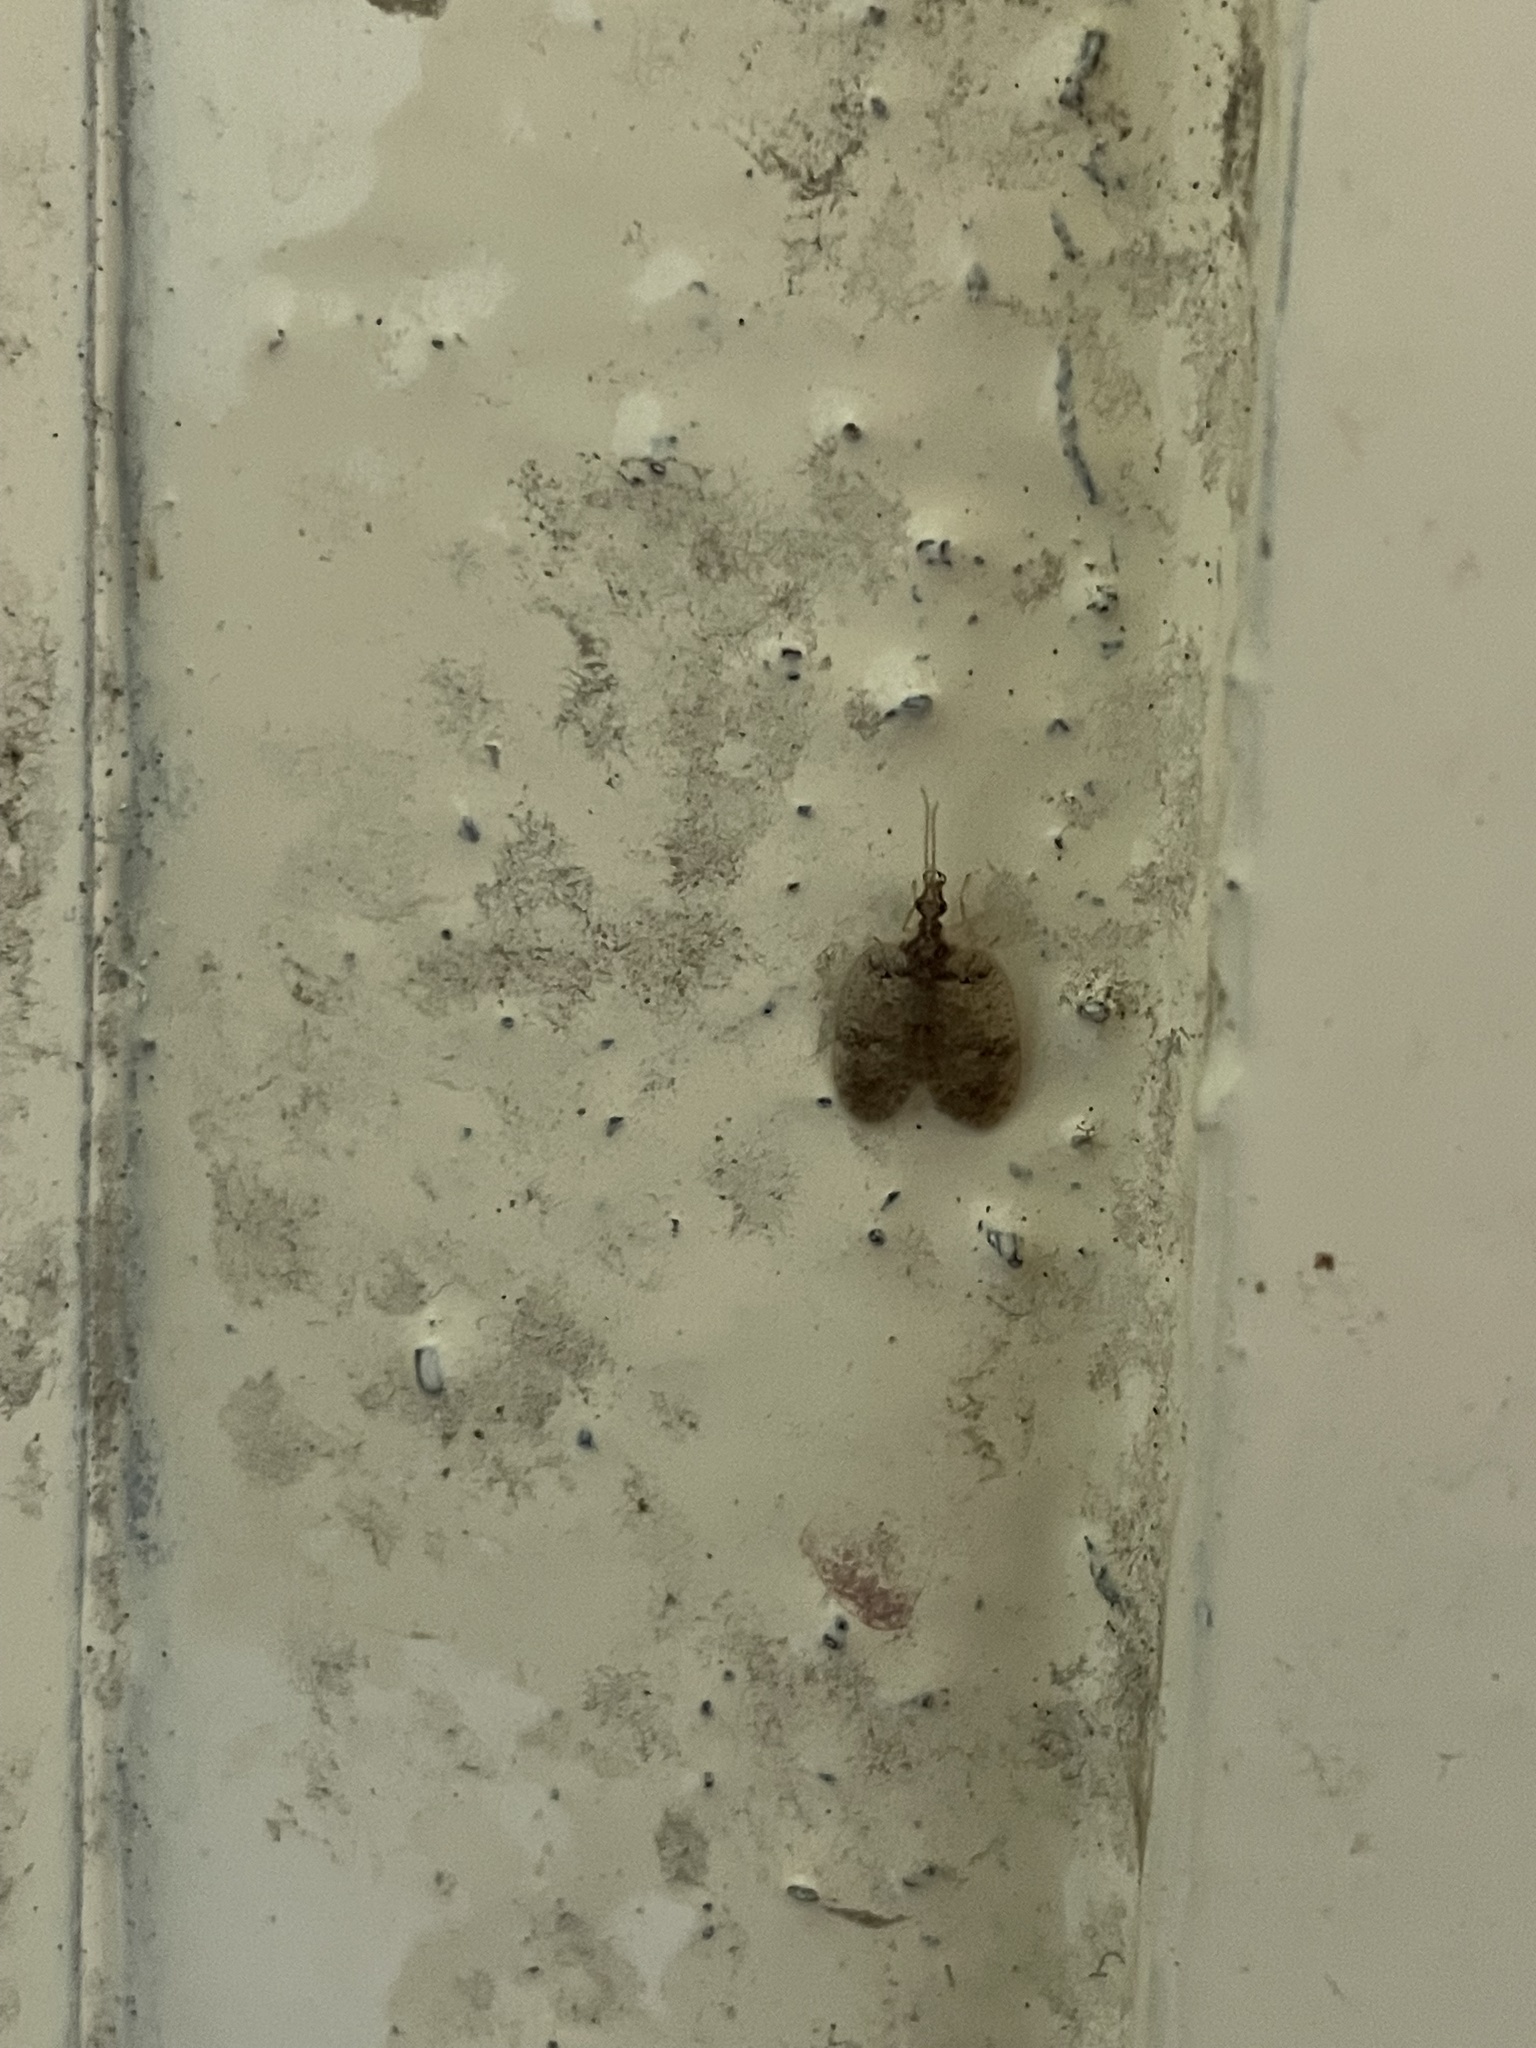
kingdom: Animalia
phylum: Arthropoda
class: Insecta
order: Neuroptera
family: Hemerobiidae
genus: Psectra
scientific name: Psectra iniqua
